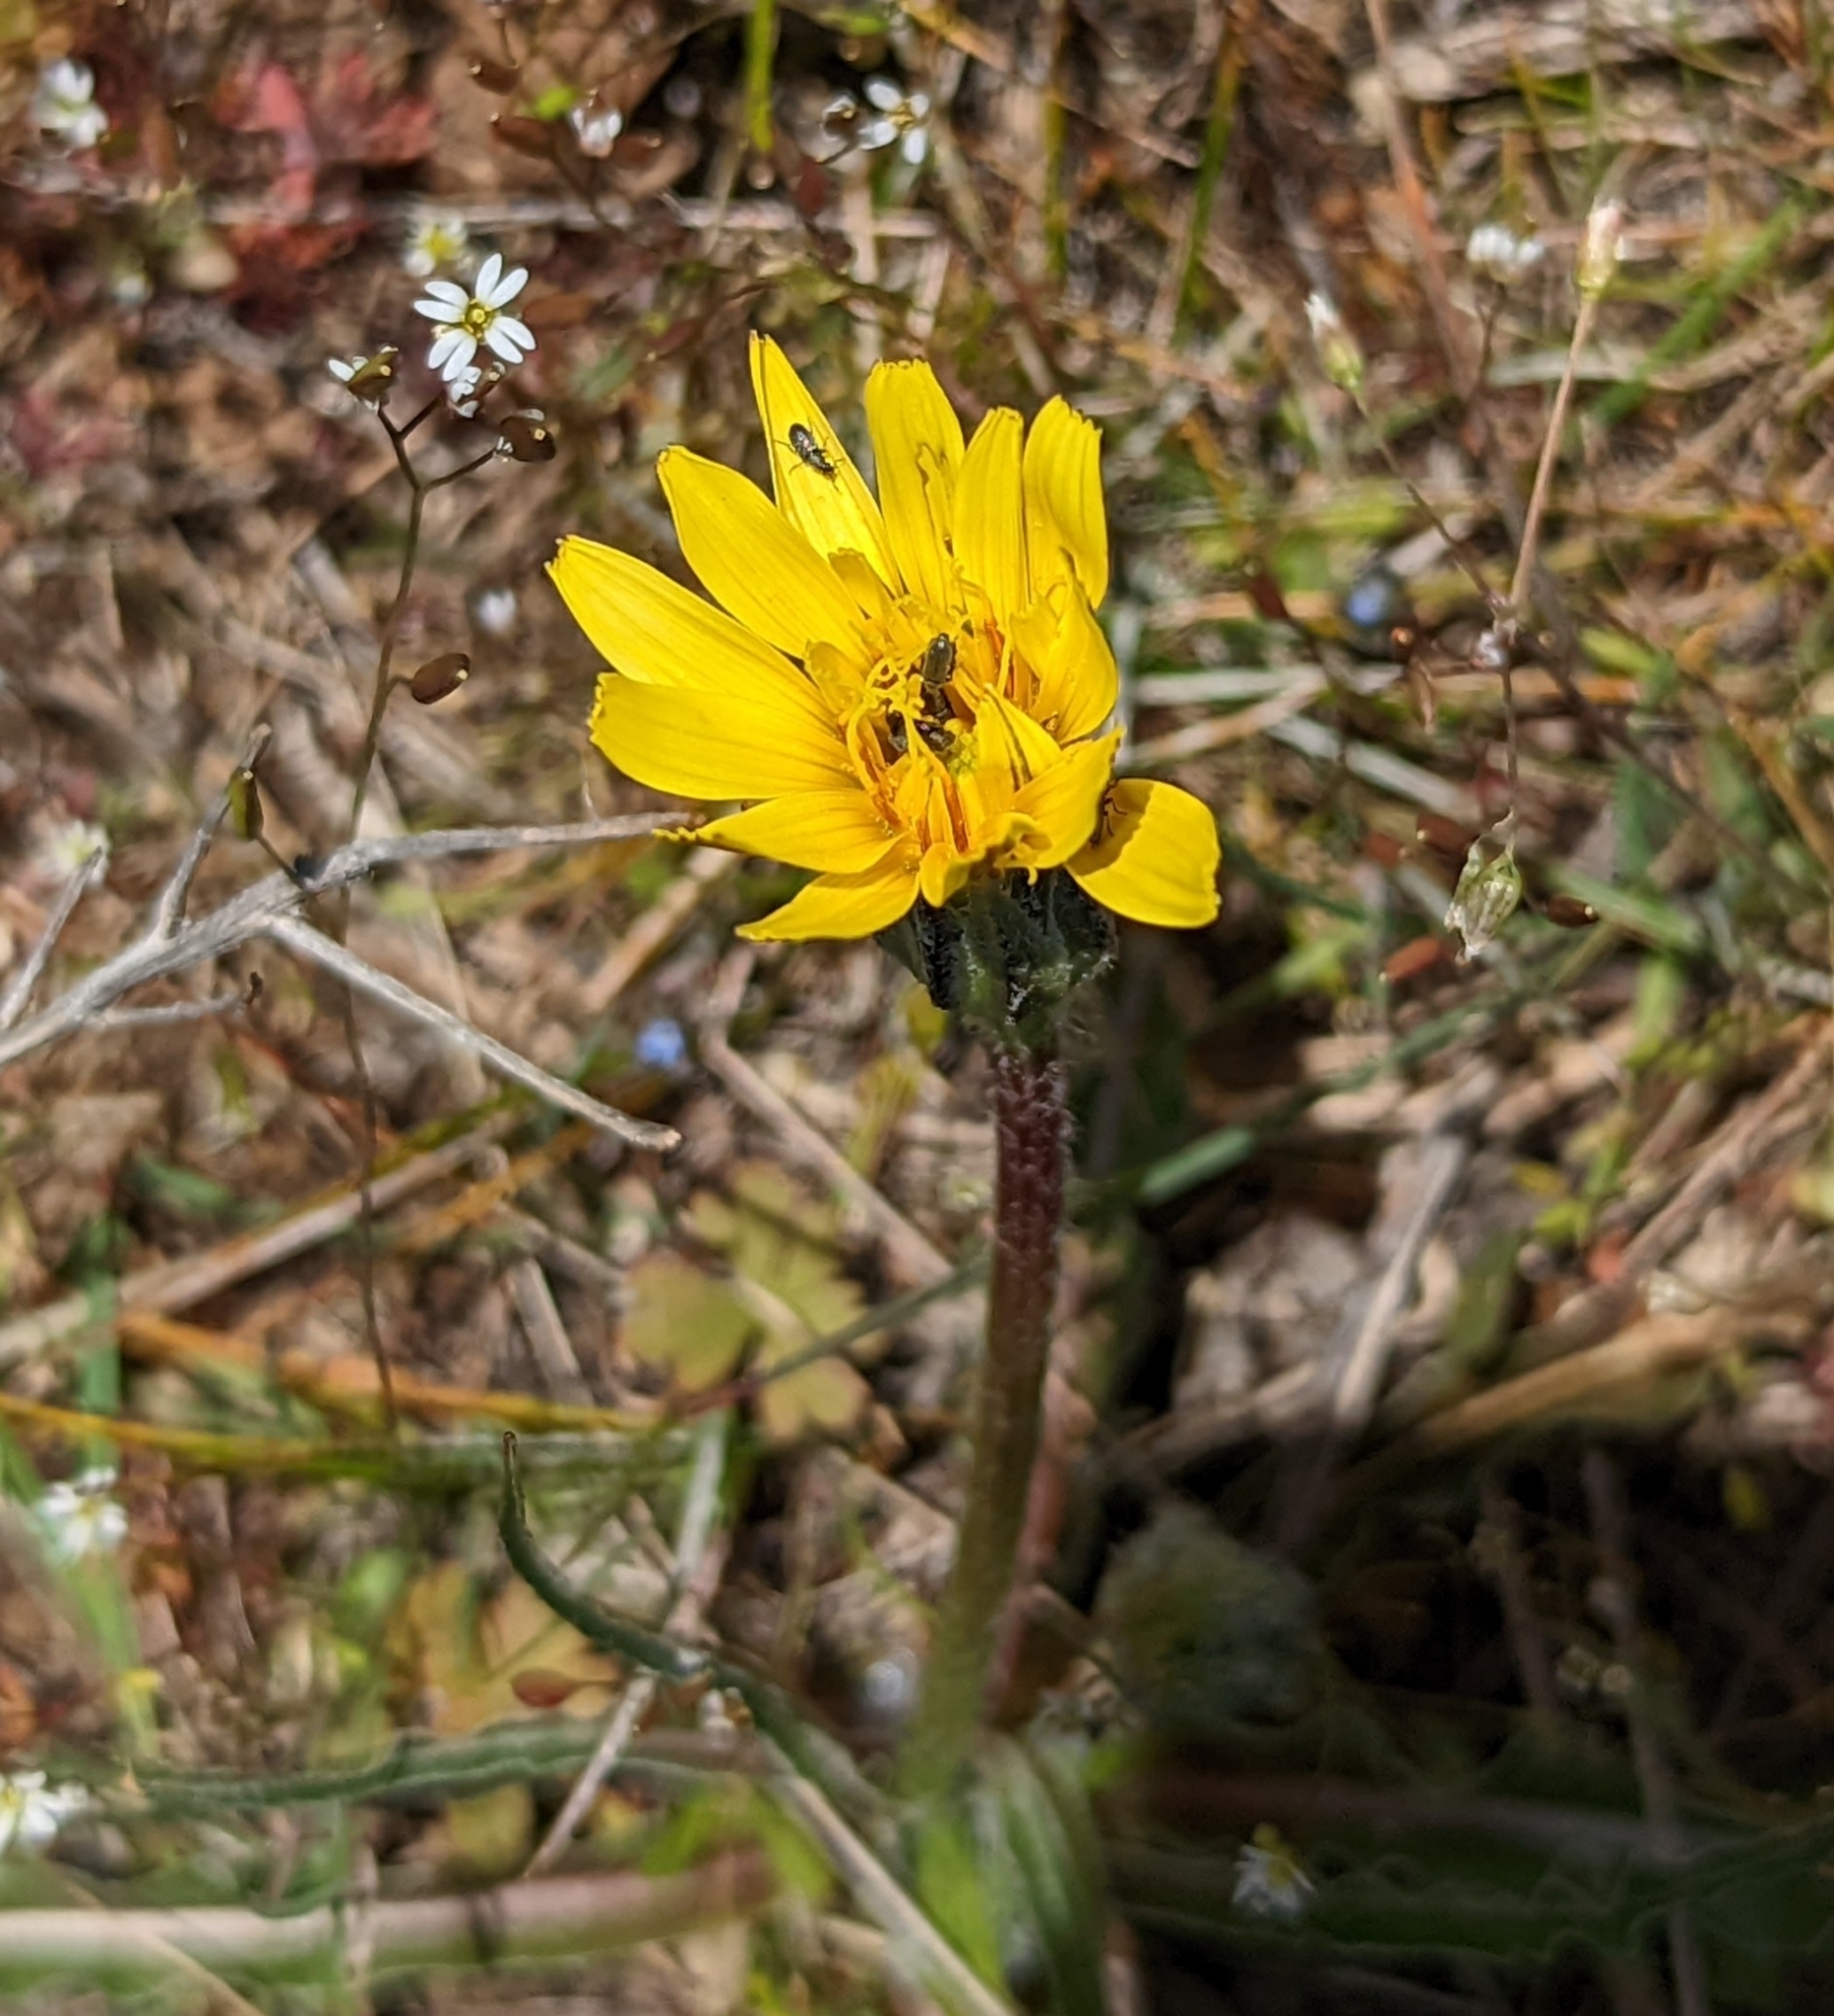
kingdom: Plantae
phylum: Tracheophyta
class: Magnoliopsida
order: Asterales
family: Asteraceae
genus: Microseris
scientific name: Microseris troximoides
